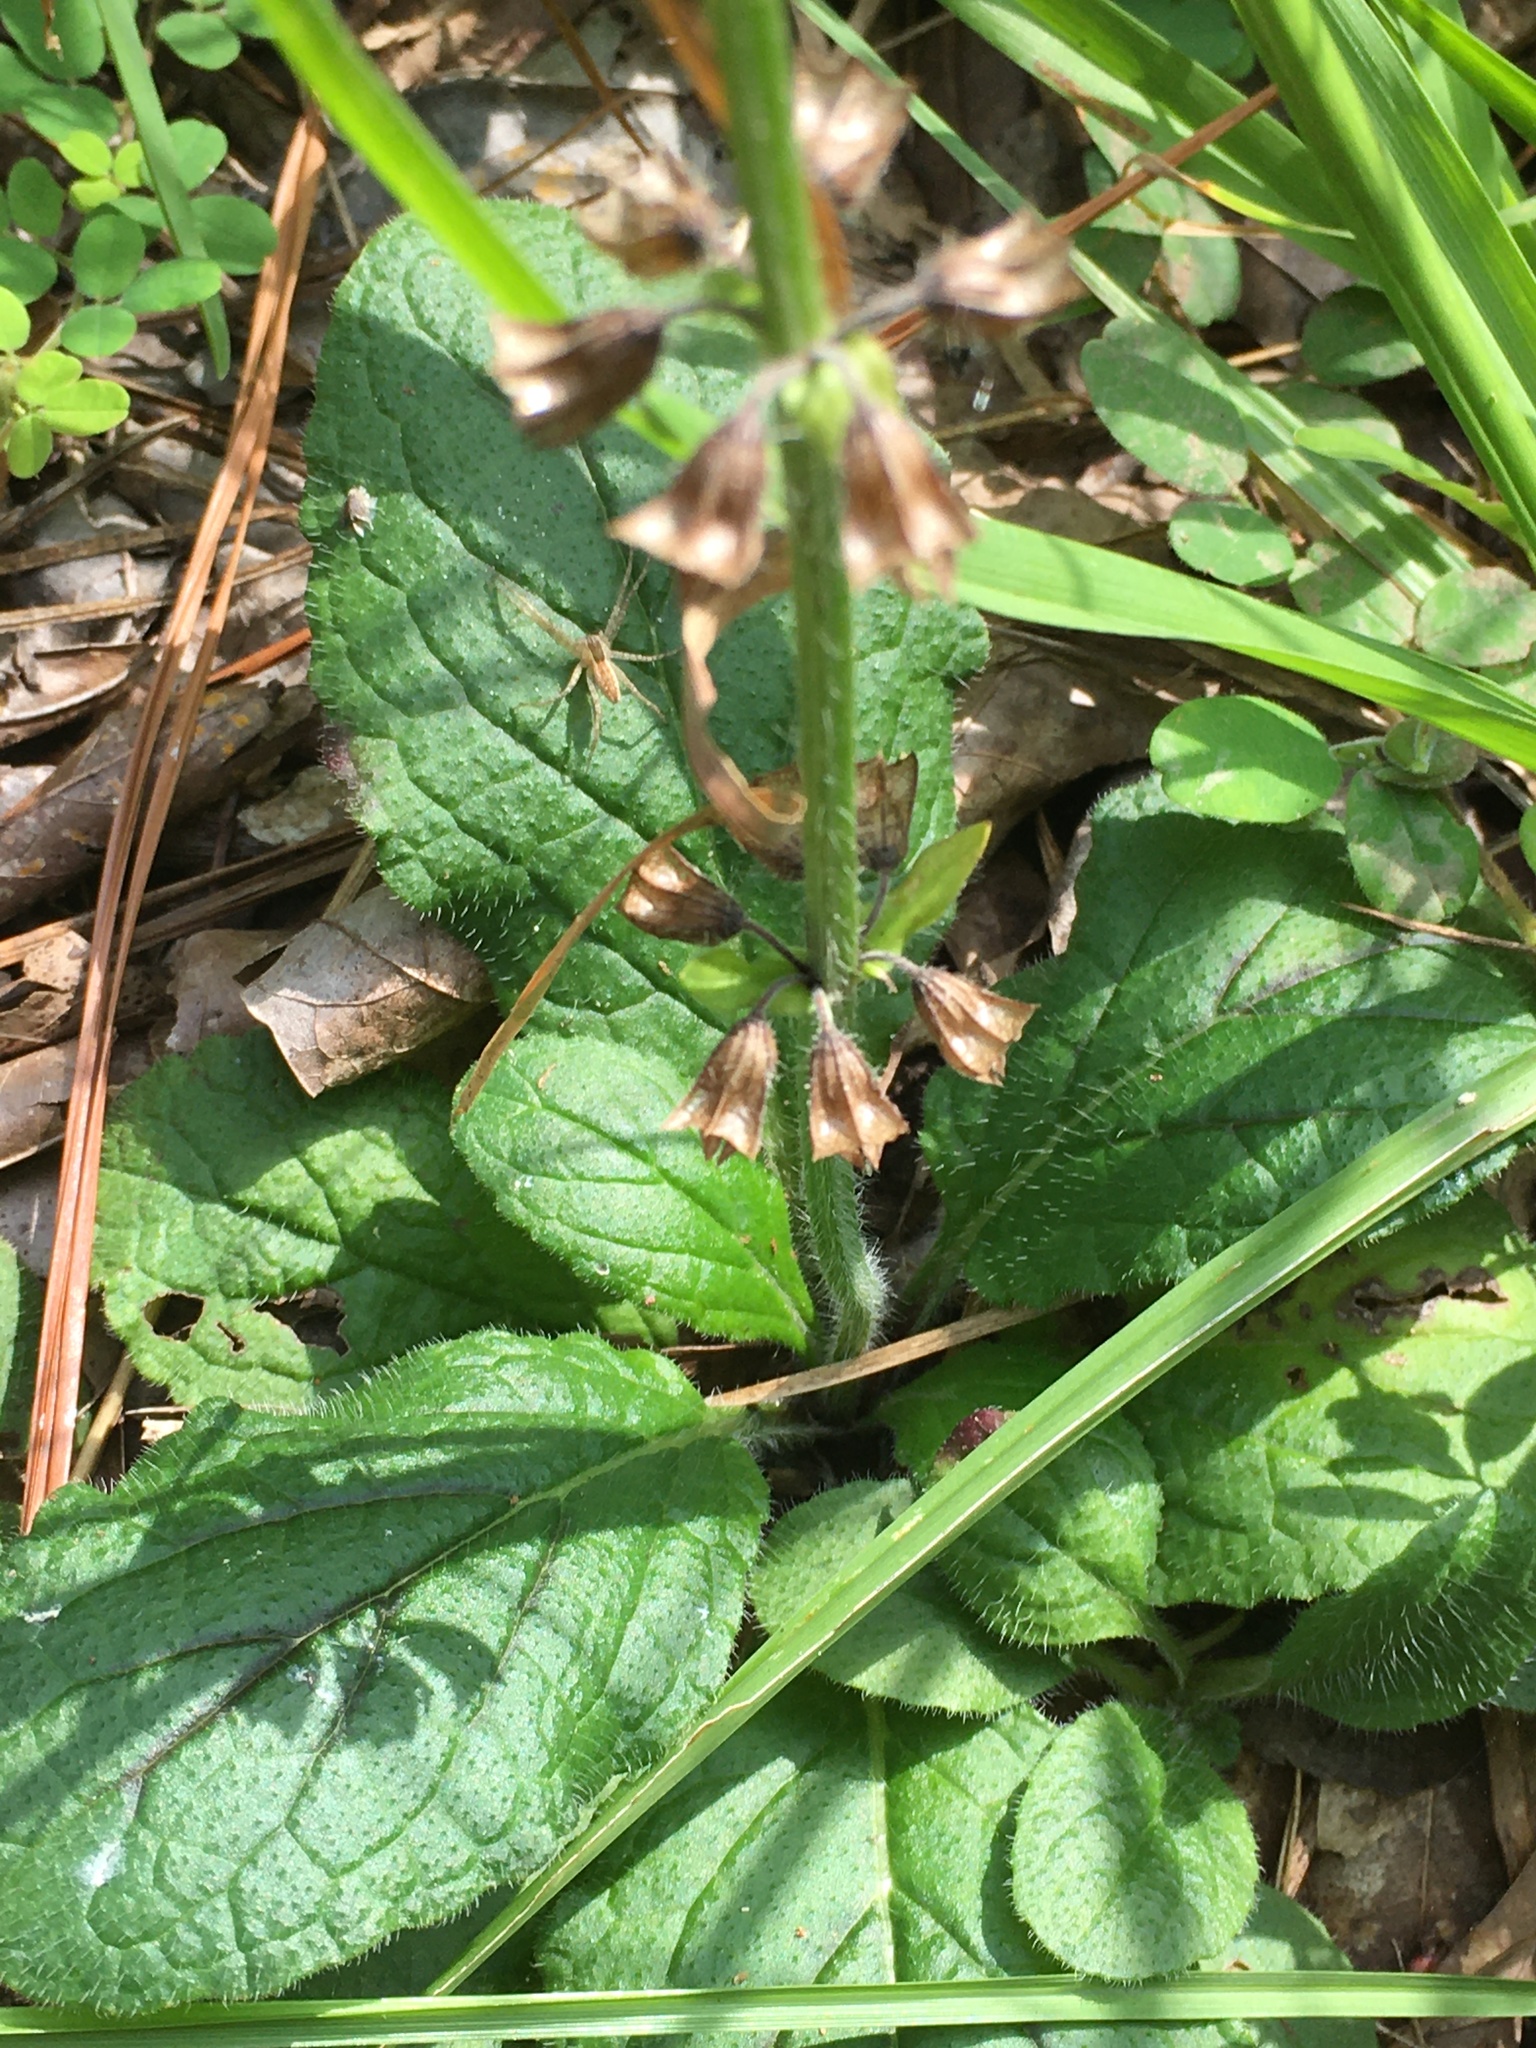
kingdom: Plantae
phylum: Tracheophyta
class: Magnoliopsida
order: Lamiales
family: Lamiaceae
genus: Salvia
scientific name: Salvia lyrata
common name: Cancerweed
